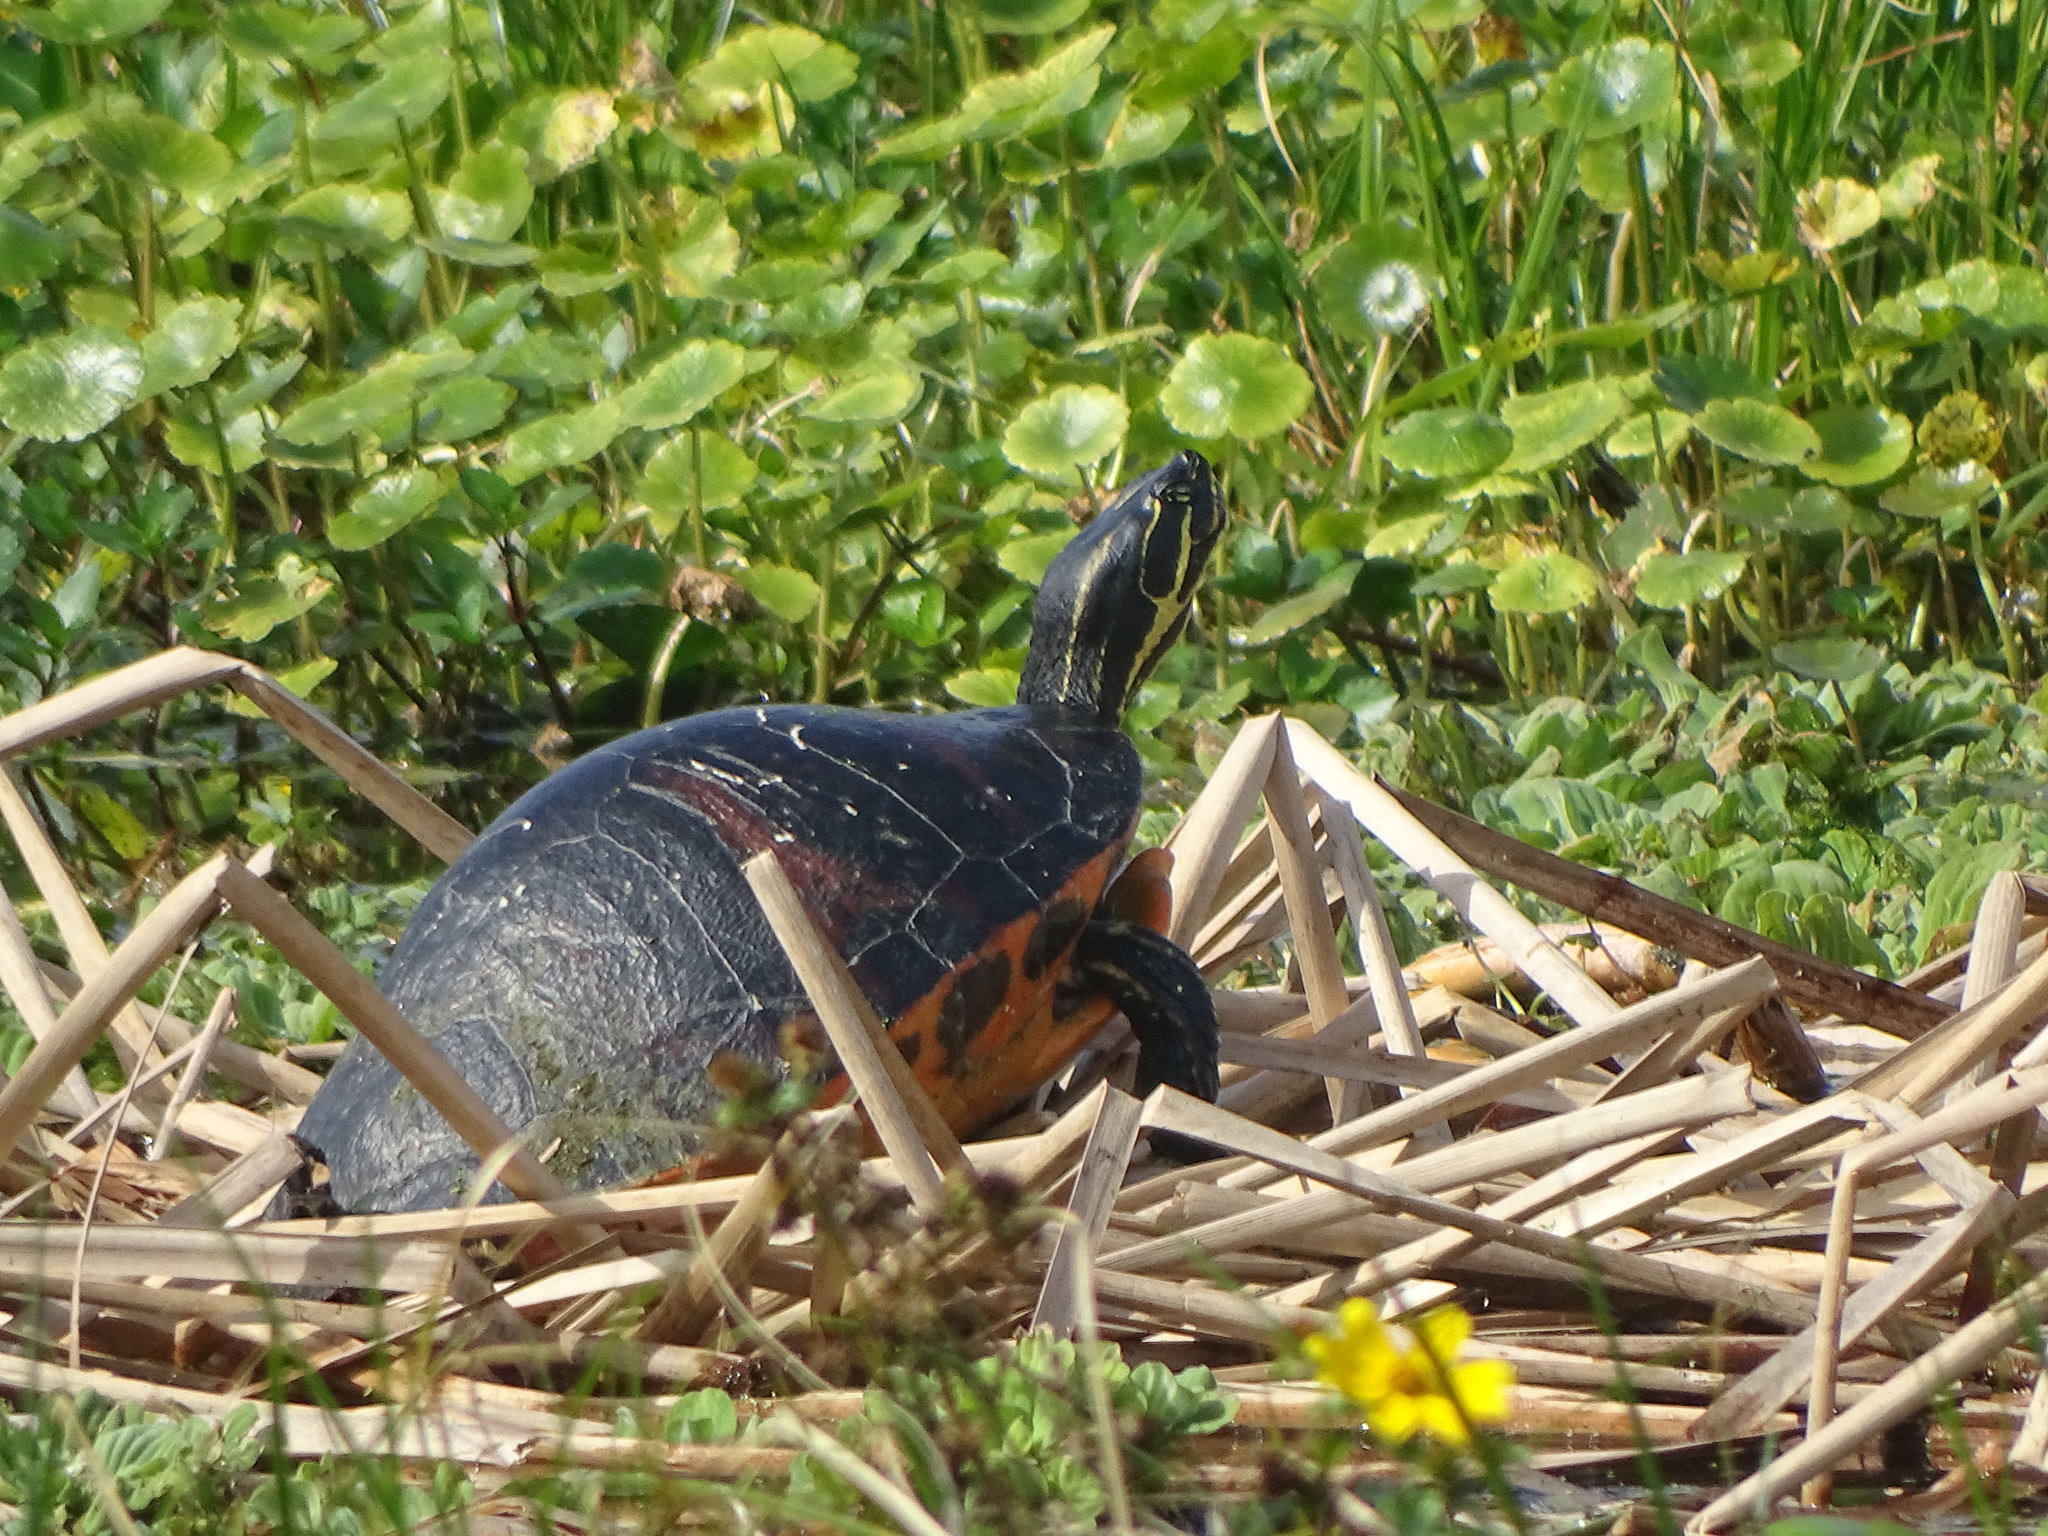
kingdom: Animalia
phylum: Chordata
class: Testudines
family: Emydidae
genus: Pseudemys
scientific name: Pseudemys nelsoni
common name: Florida red-bellied turtle
